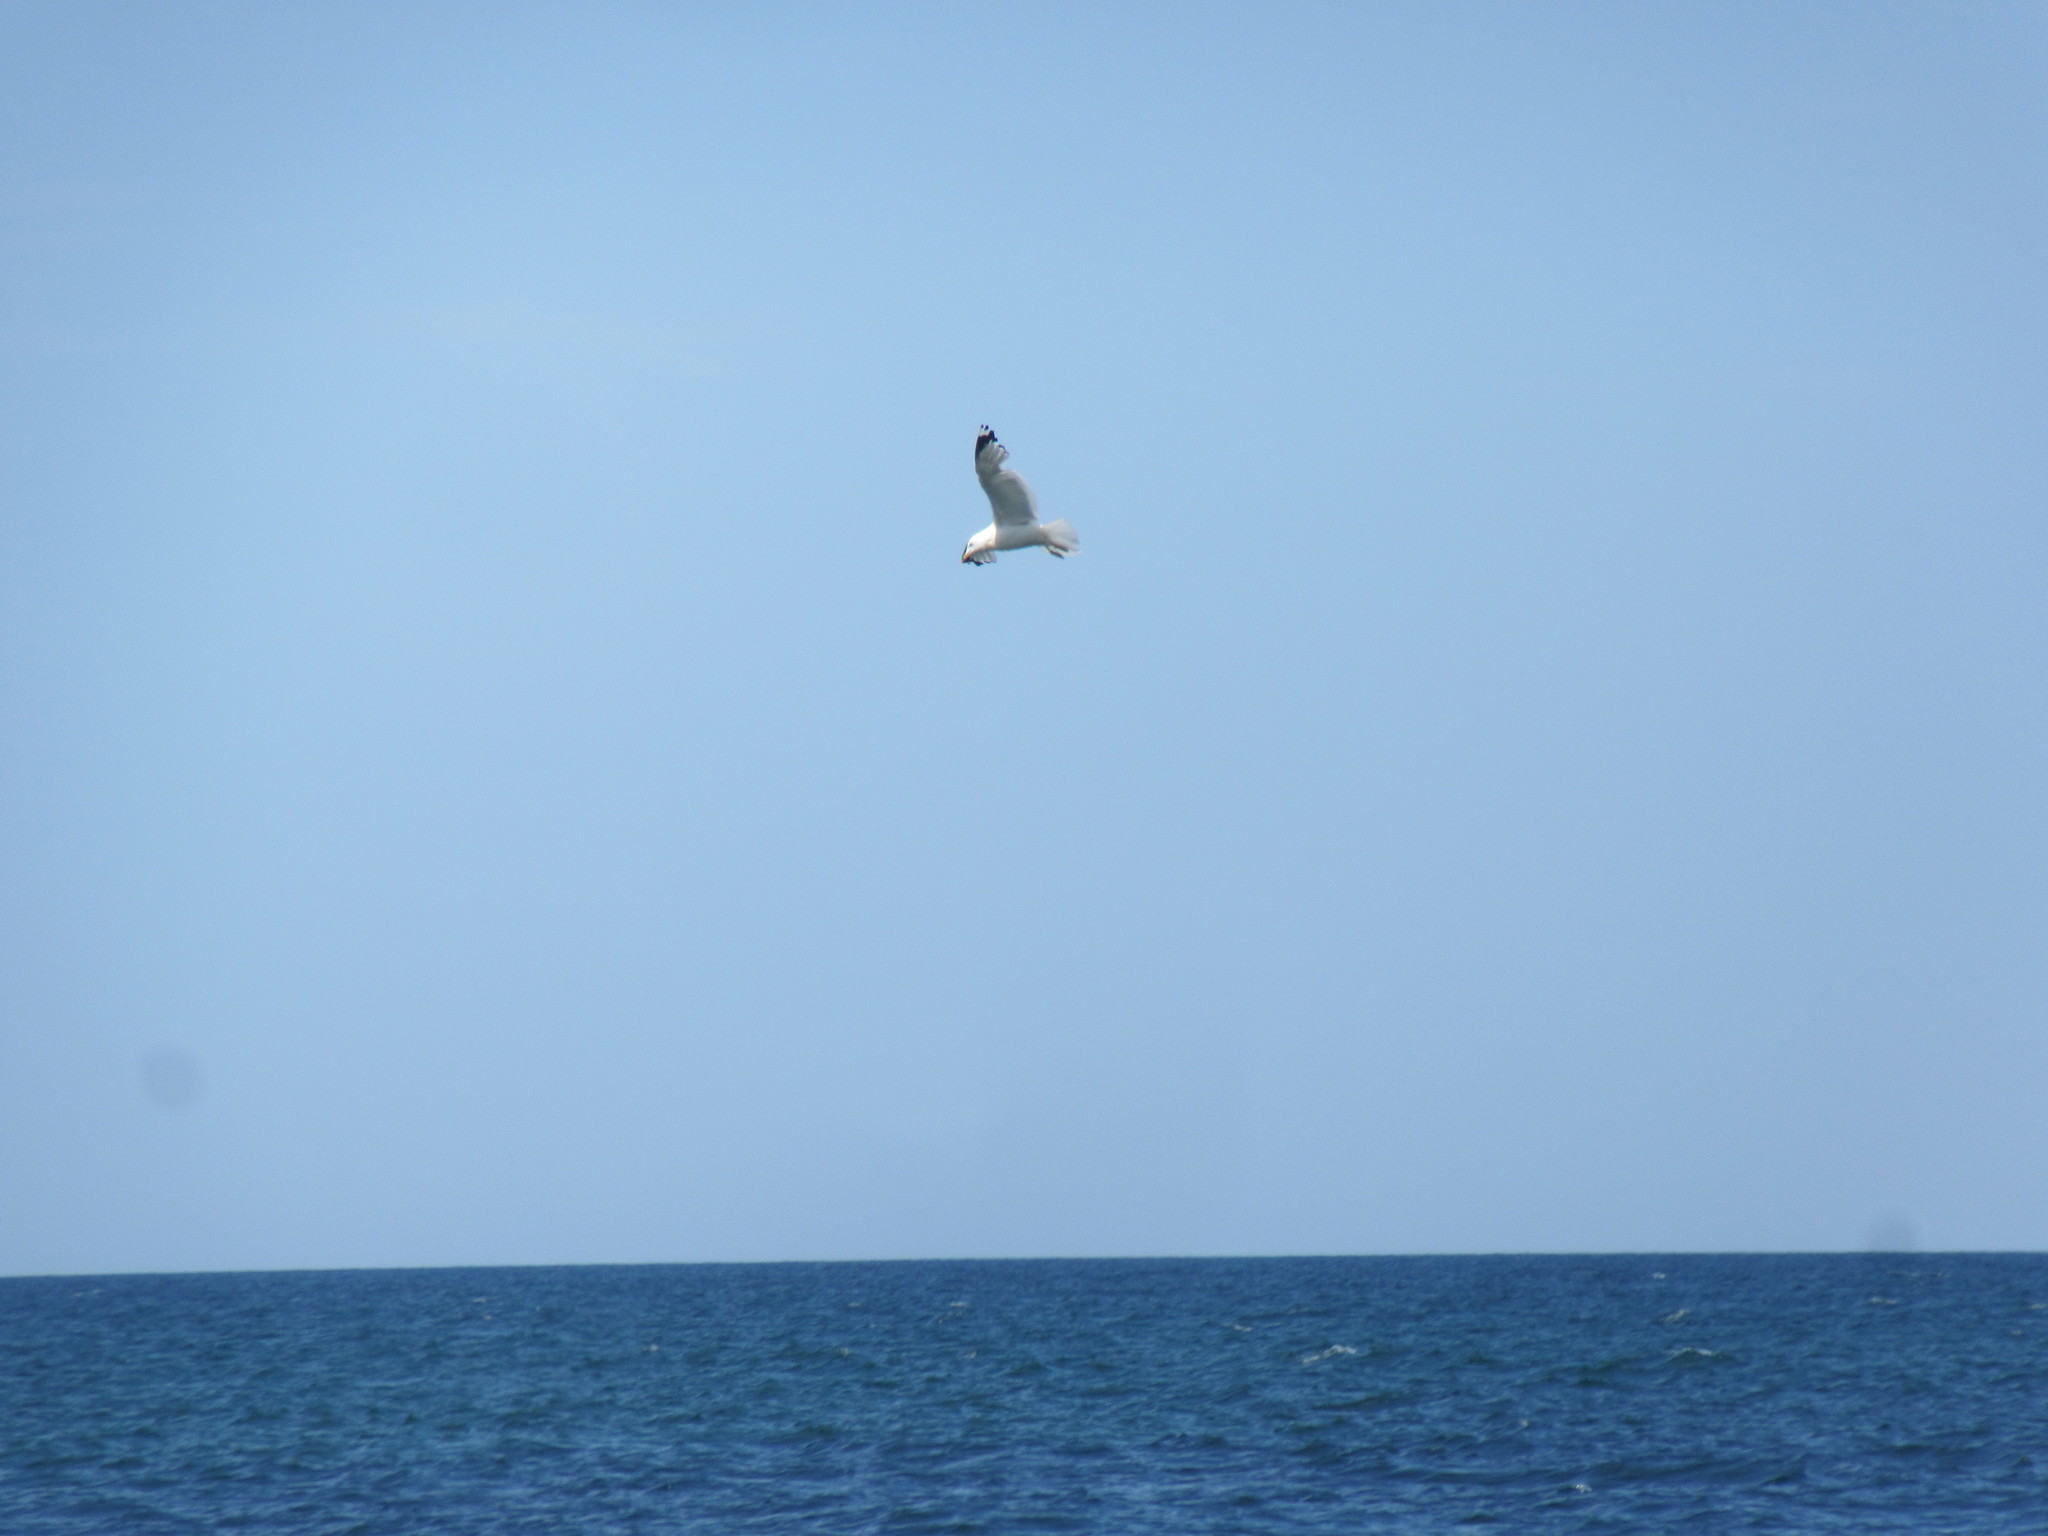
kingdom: Animalia
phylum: Chordata
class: Aves
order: Charadriiformes
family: Laridae
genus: Larus
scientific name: Larus argentatus
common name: Herring gull
